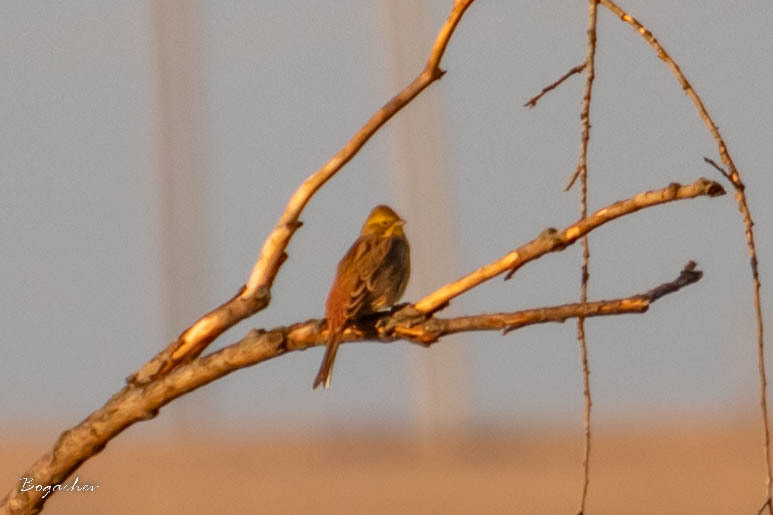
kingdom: Animalia
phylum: Chordata
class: Aves
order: Passeriformes
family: Emberizidae
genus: Emberiza
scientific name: Emberiza citrinella
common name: Yellowhammer
